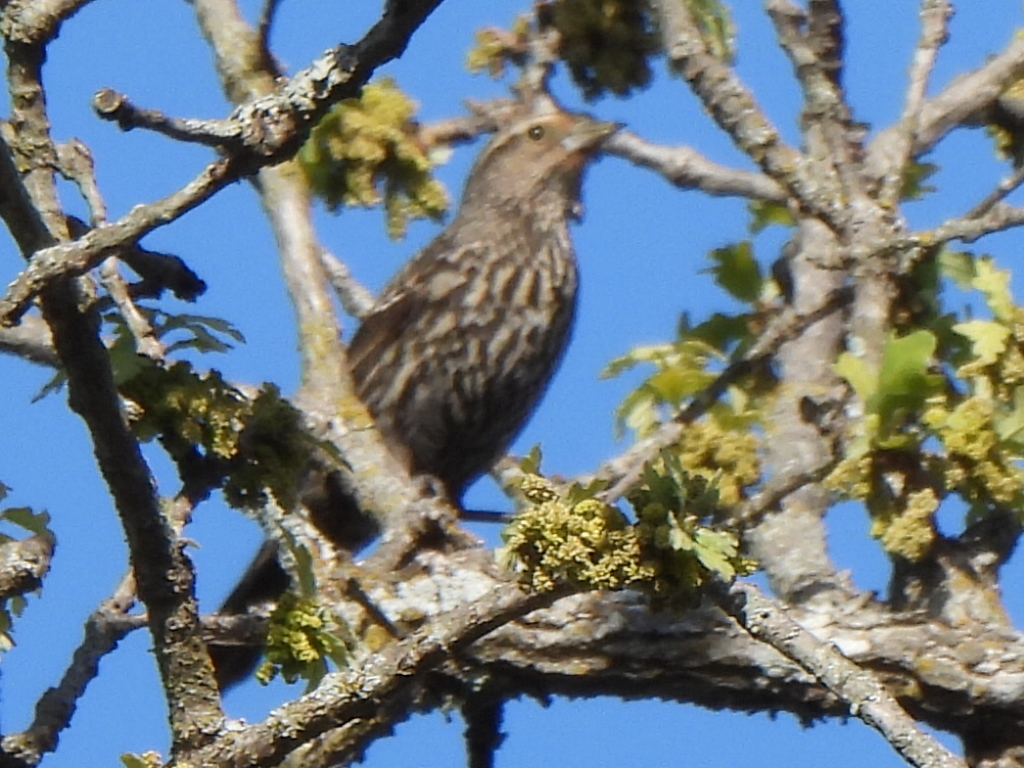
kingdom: Animalia
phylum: Chordata
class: Aves
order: Passeriformes
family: Icteridae
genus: Agelaius
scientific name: Agelaius phoeniceus
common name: Red-winged blackbird
